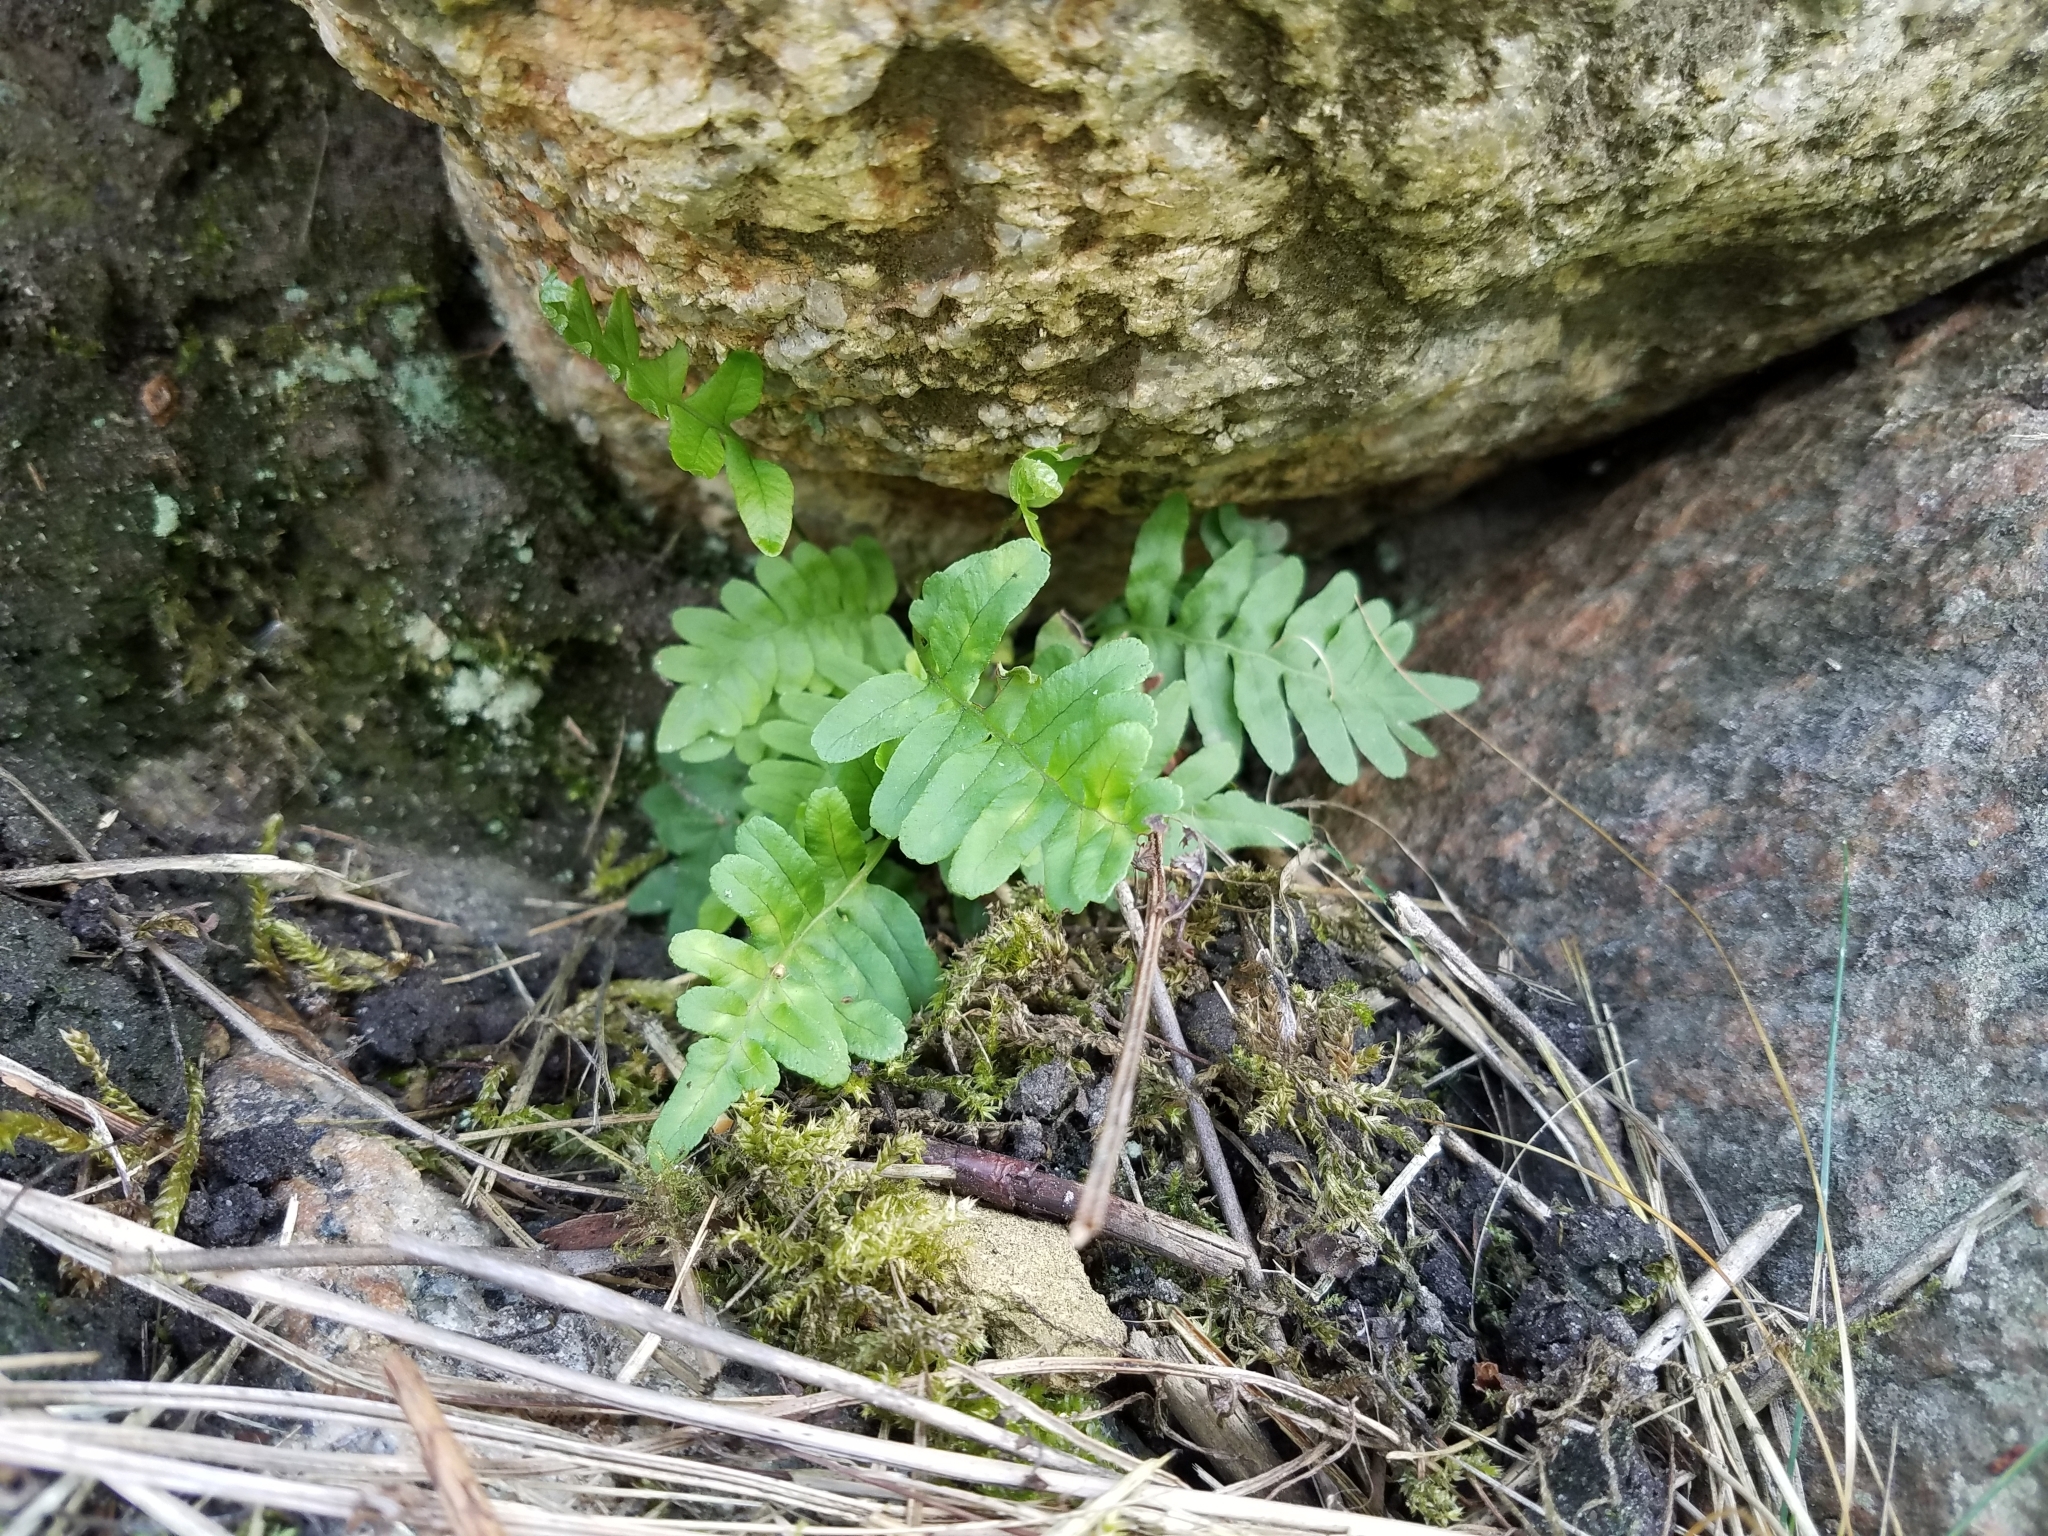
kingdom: Plantae
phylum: Tracheophyta
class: Polypodiopsida
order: Polypodiales
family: Polypodiaceae
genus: Polypodium
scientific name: Polypodium vulgare
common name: Common polypody
